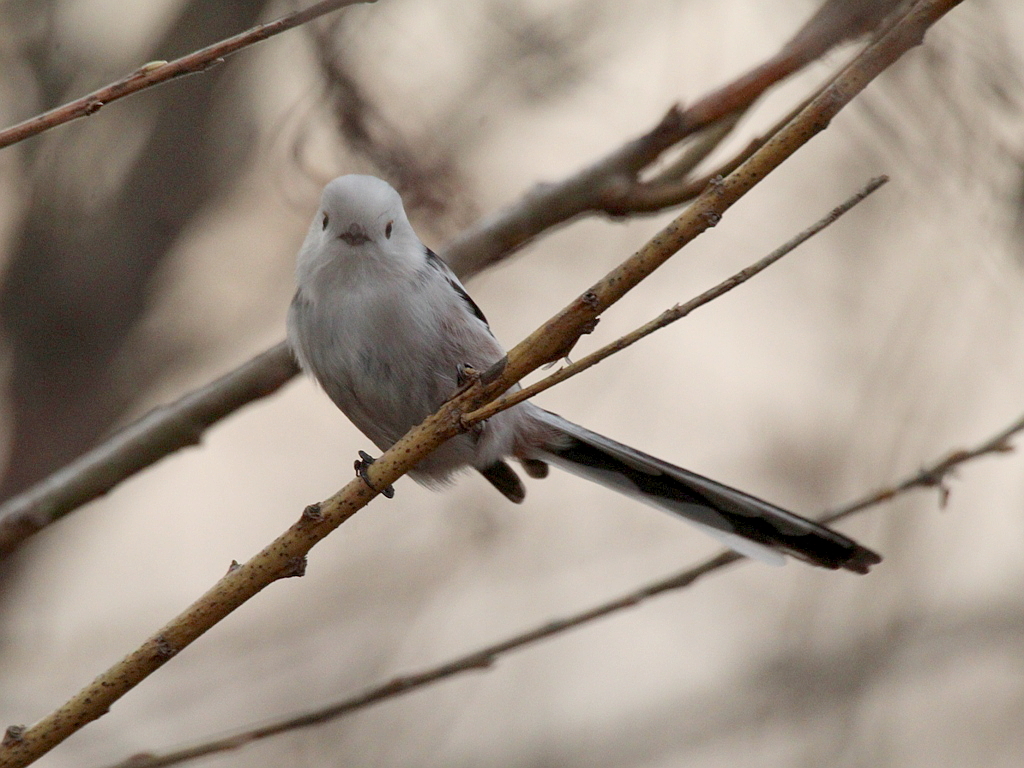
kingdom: Animalia
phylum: Chordata
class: Aves
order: Passeriformes
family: Aegithalidae
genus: Aegithalos
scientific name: Aegithalos caudatus
